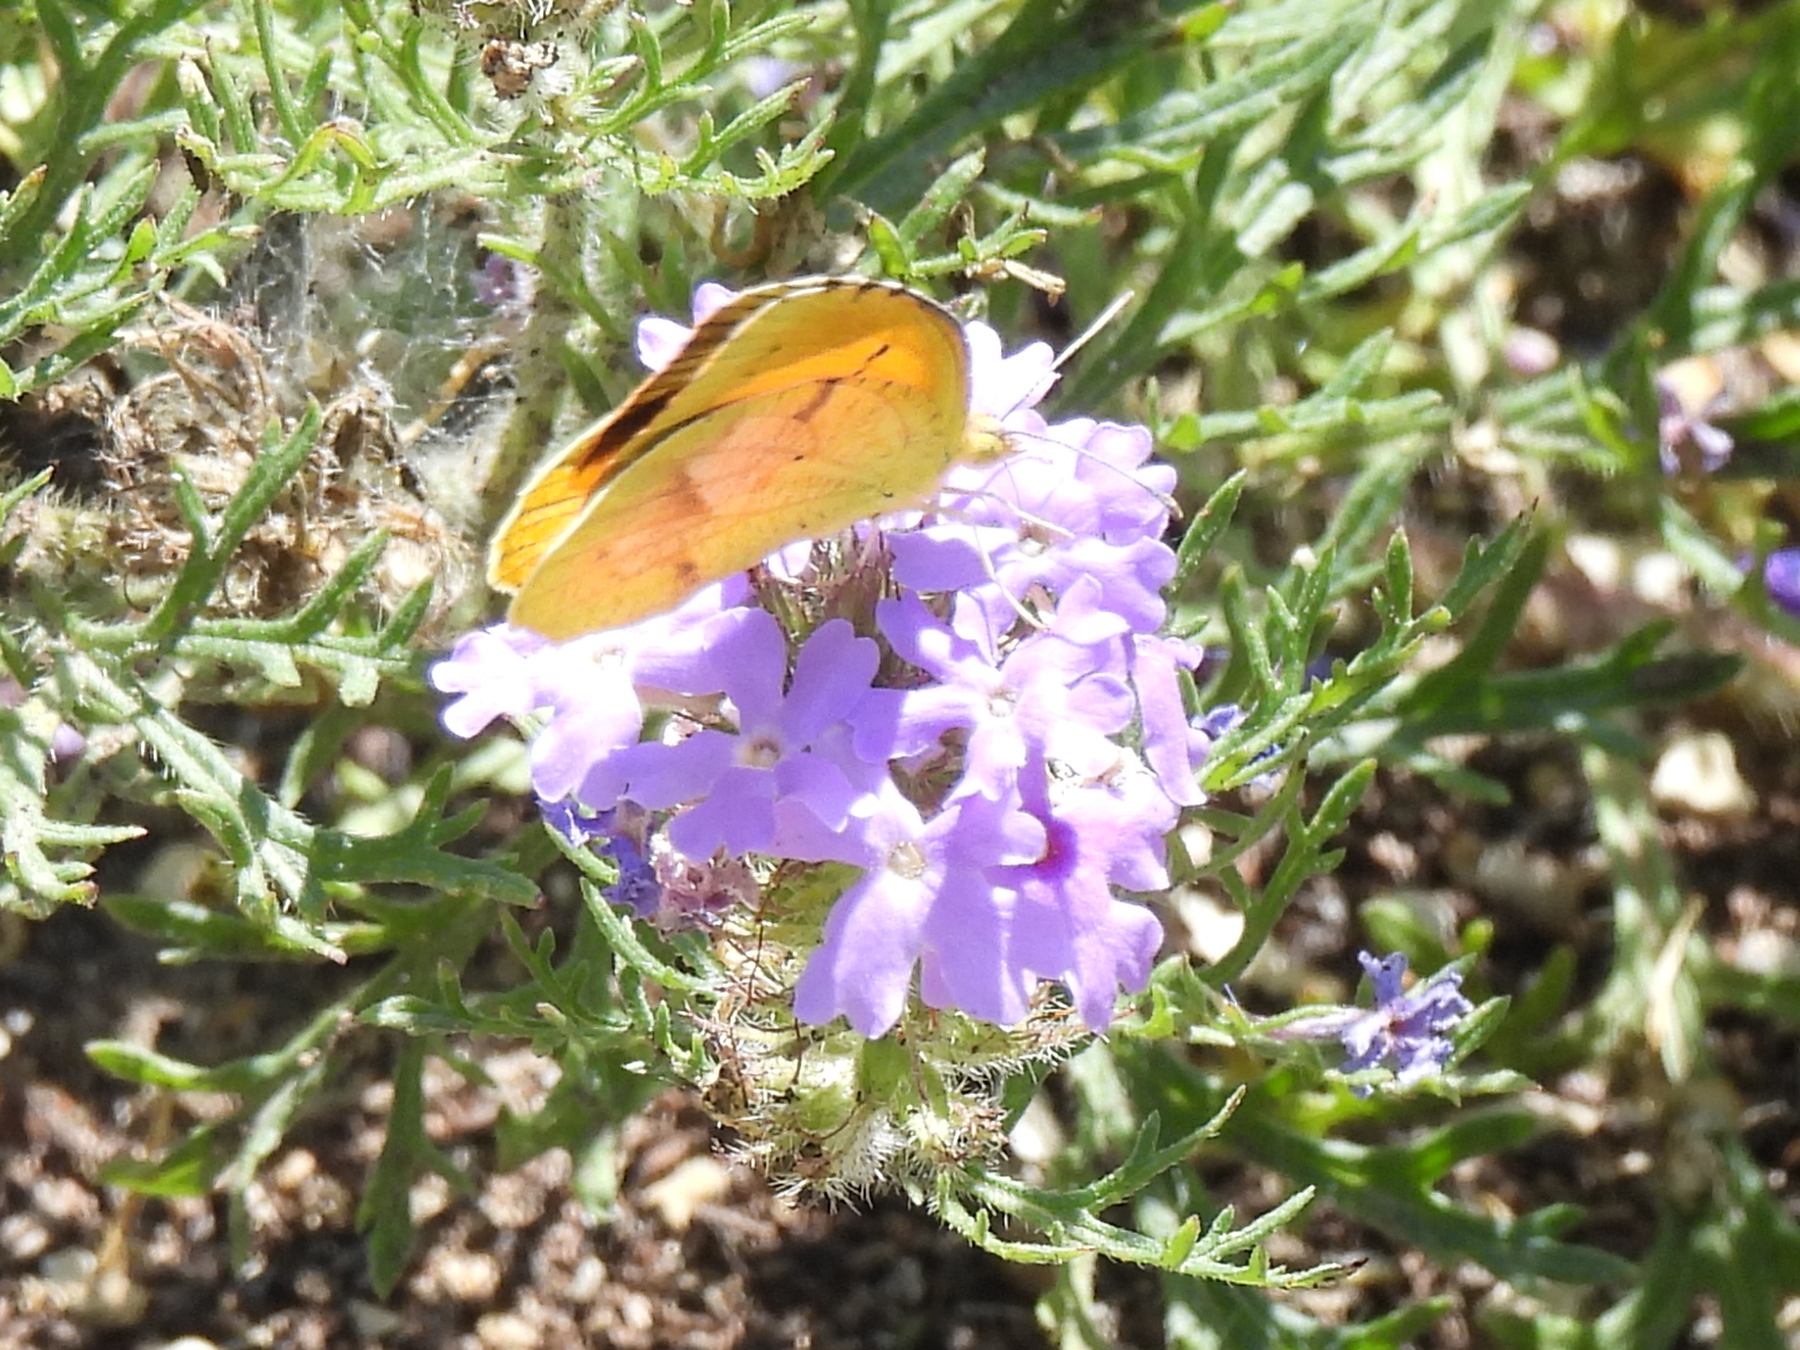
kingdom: Animalia
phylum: Arthropoda
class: Insecta
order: Lepidoptera
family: Pieridae
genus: Abaeis
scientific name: Abaeis nicippe
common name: Sleepy orange
